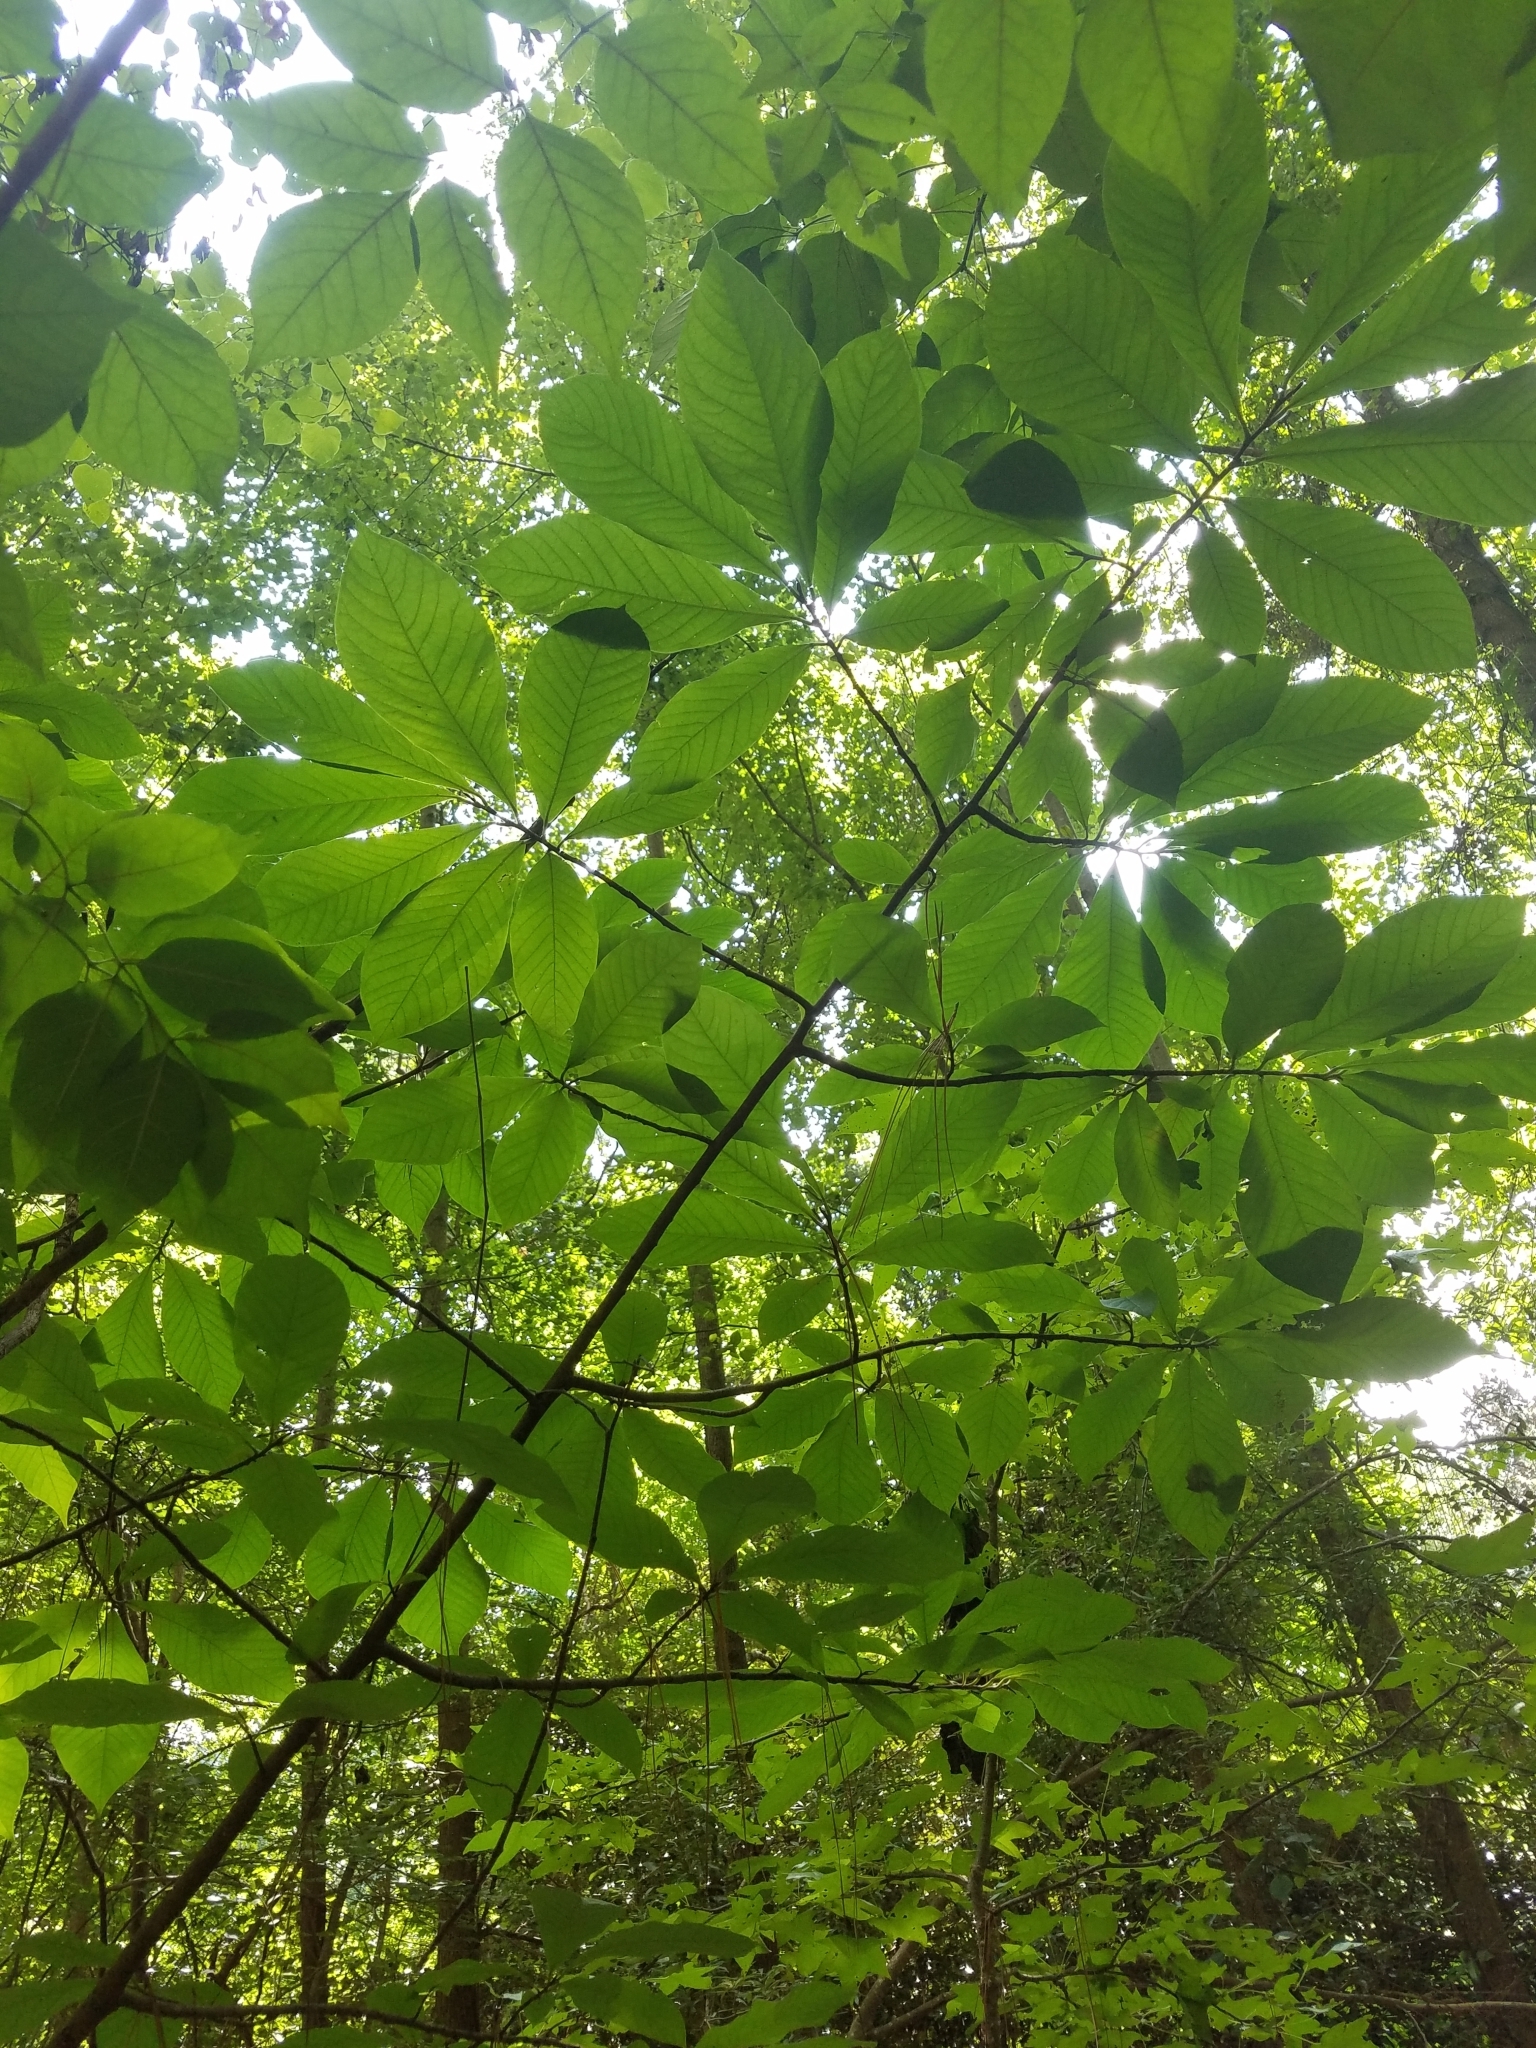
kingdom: Plantae
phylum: Tracheophyta
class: Magnoliopsida
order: Magnoliales
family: Annonaceae
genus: Asimina
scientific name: Asimina triloba
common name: Dog-banana
